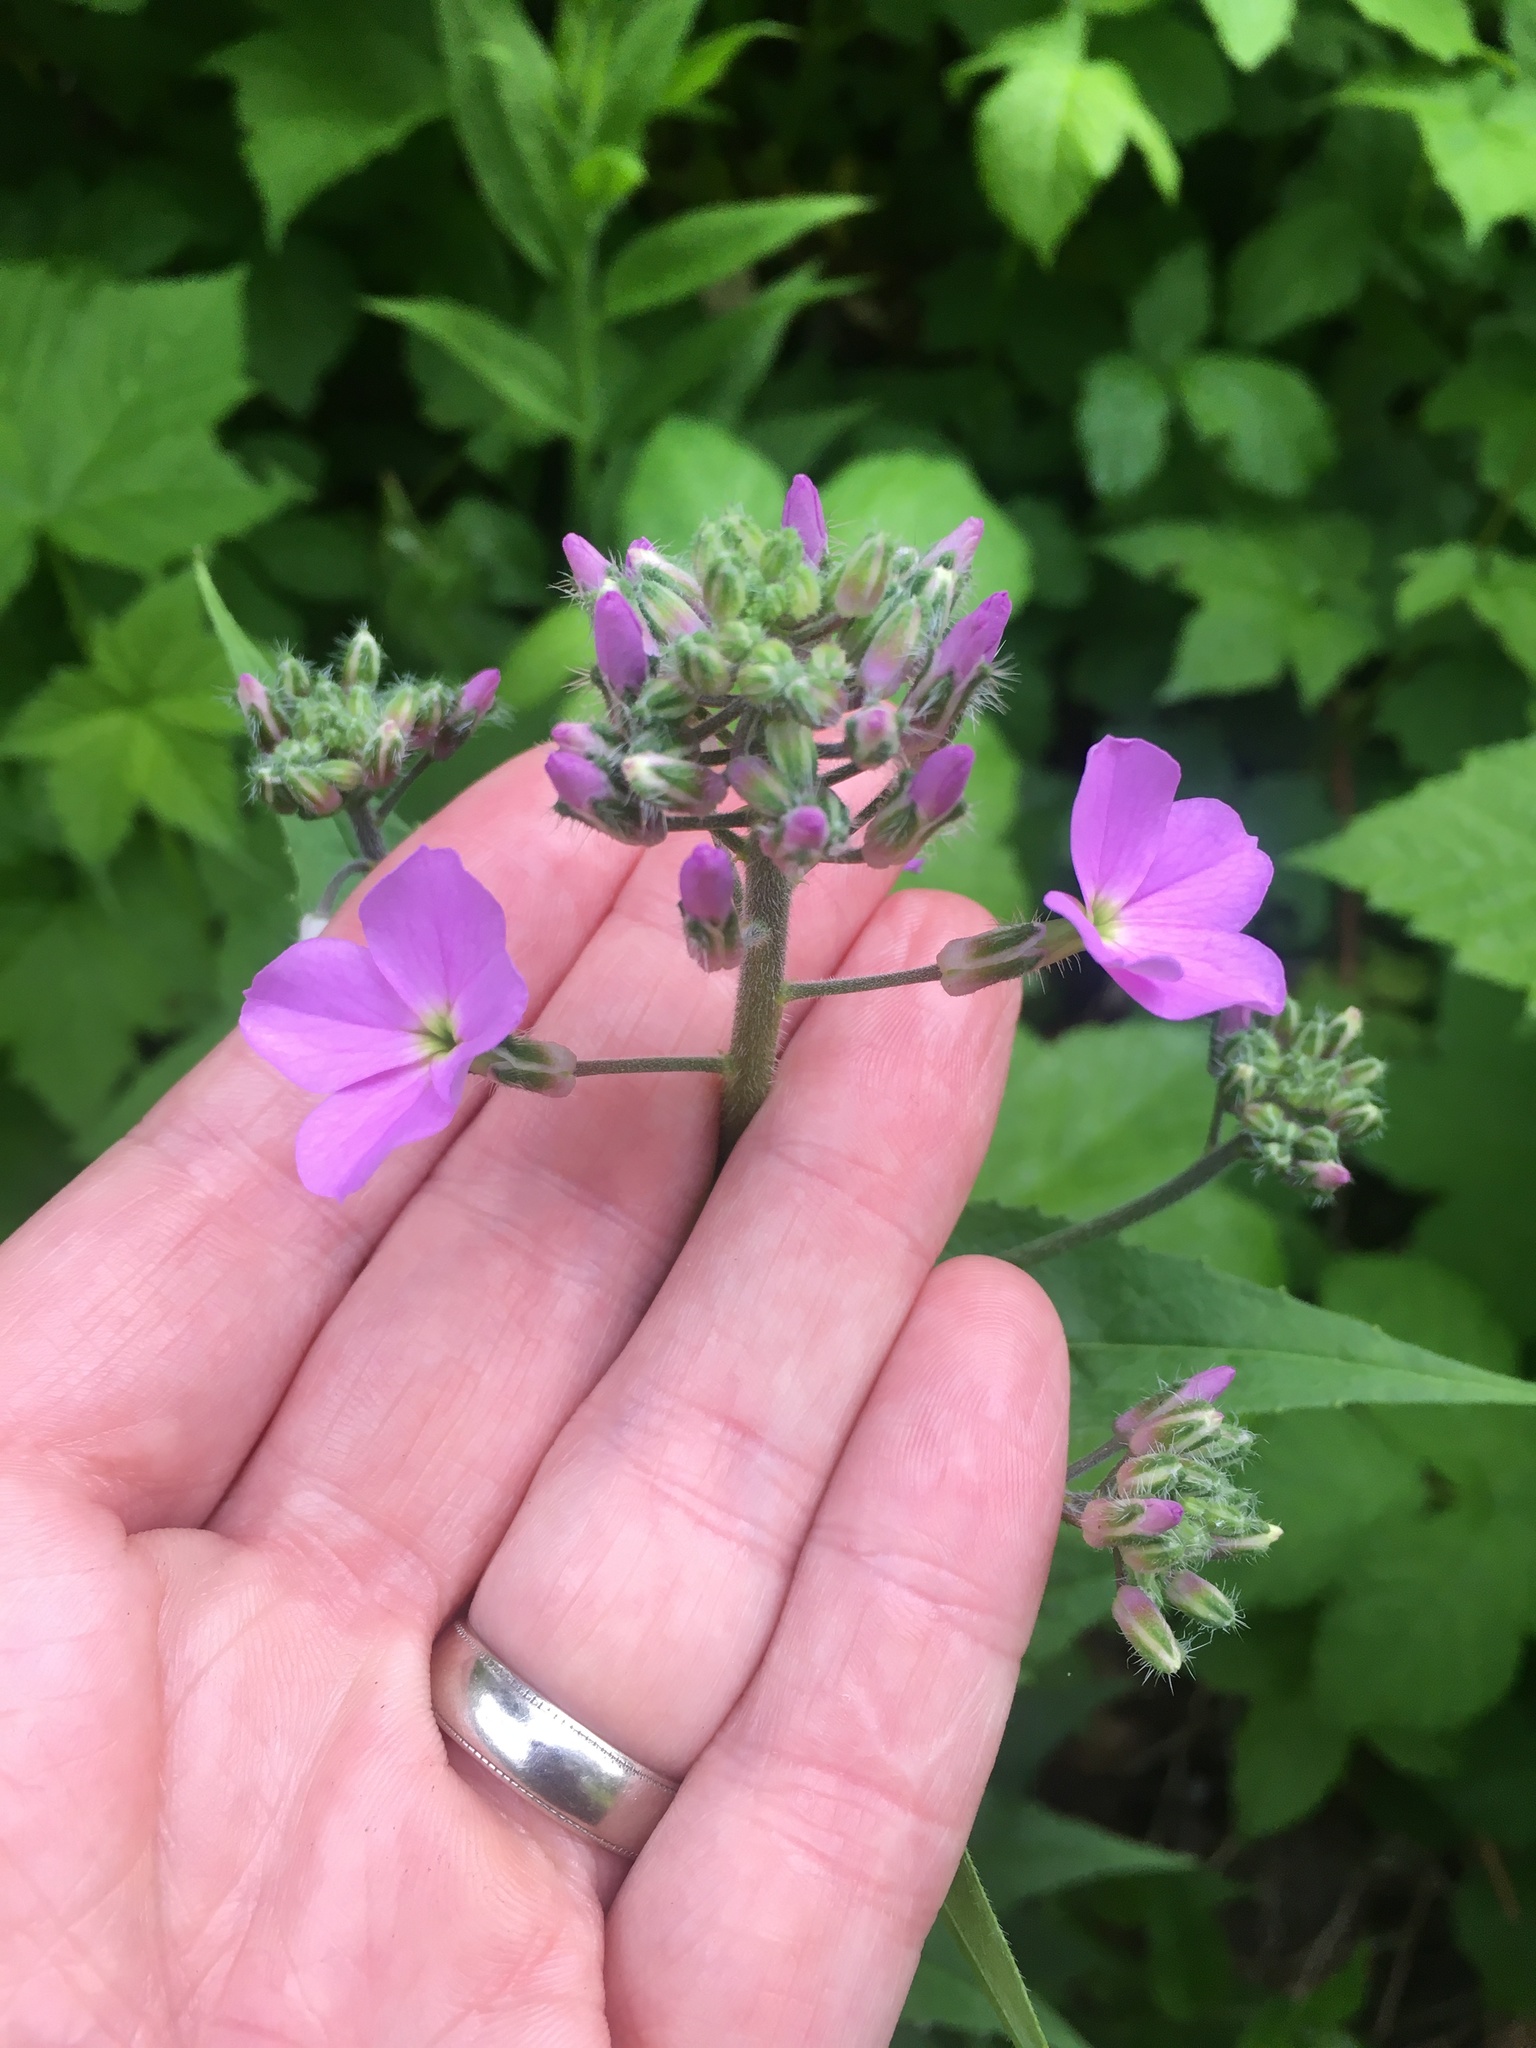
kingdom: Plantae
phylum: Tracheophyta
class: Magnoliopsida
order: Brassicales
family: Brassicaceae
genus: Hesperis
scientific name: Hesperis matronalis
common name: Dame's-violet
